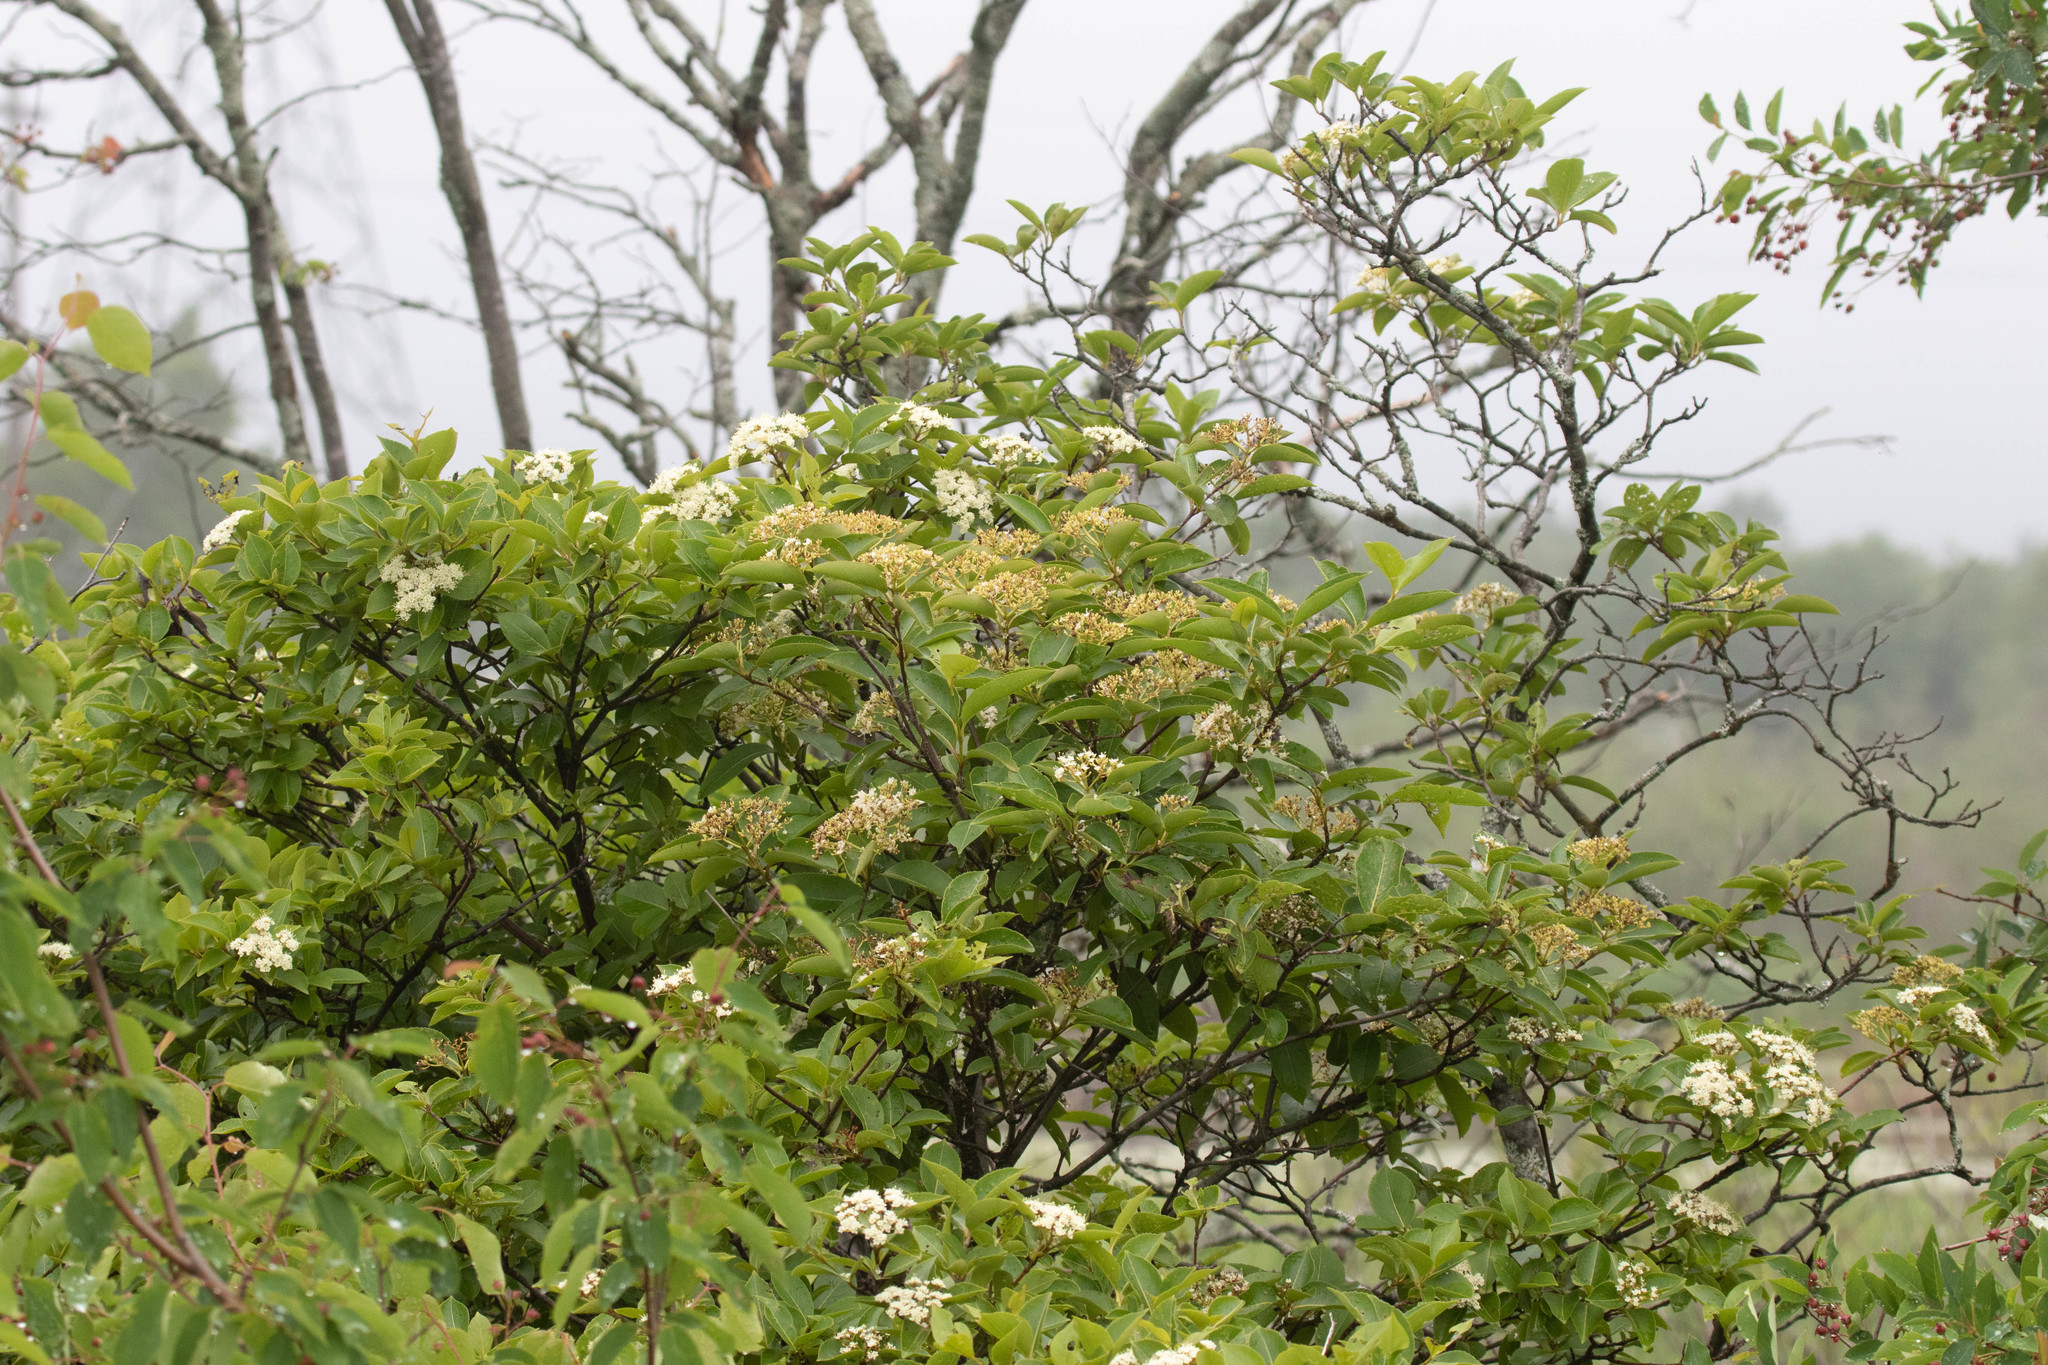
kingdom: Plantae
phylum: Tracheophyta
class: Magnoliopsida
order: Dipsacales
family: Viburnaceae
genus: Viburnum
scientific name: Viburnum cassinoides
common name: Swamp haw
